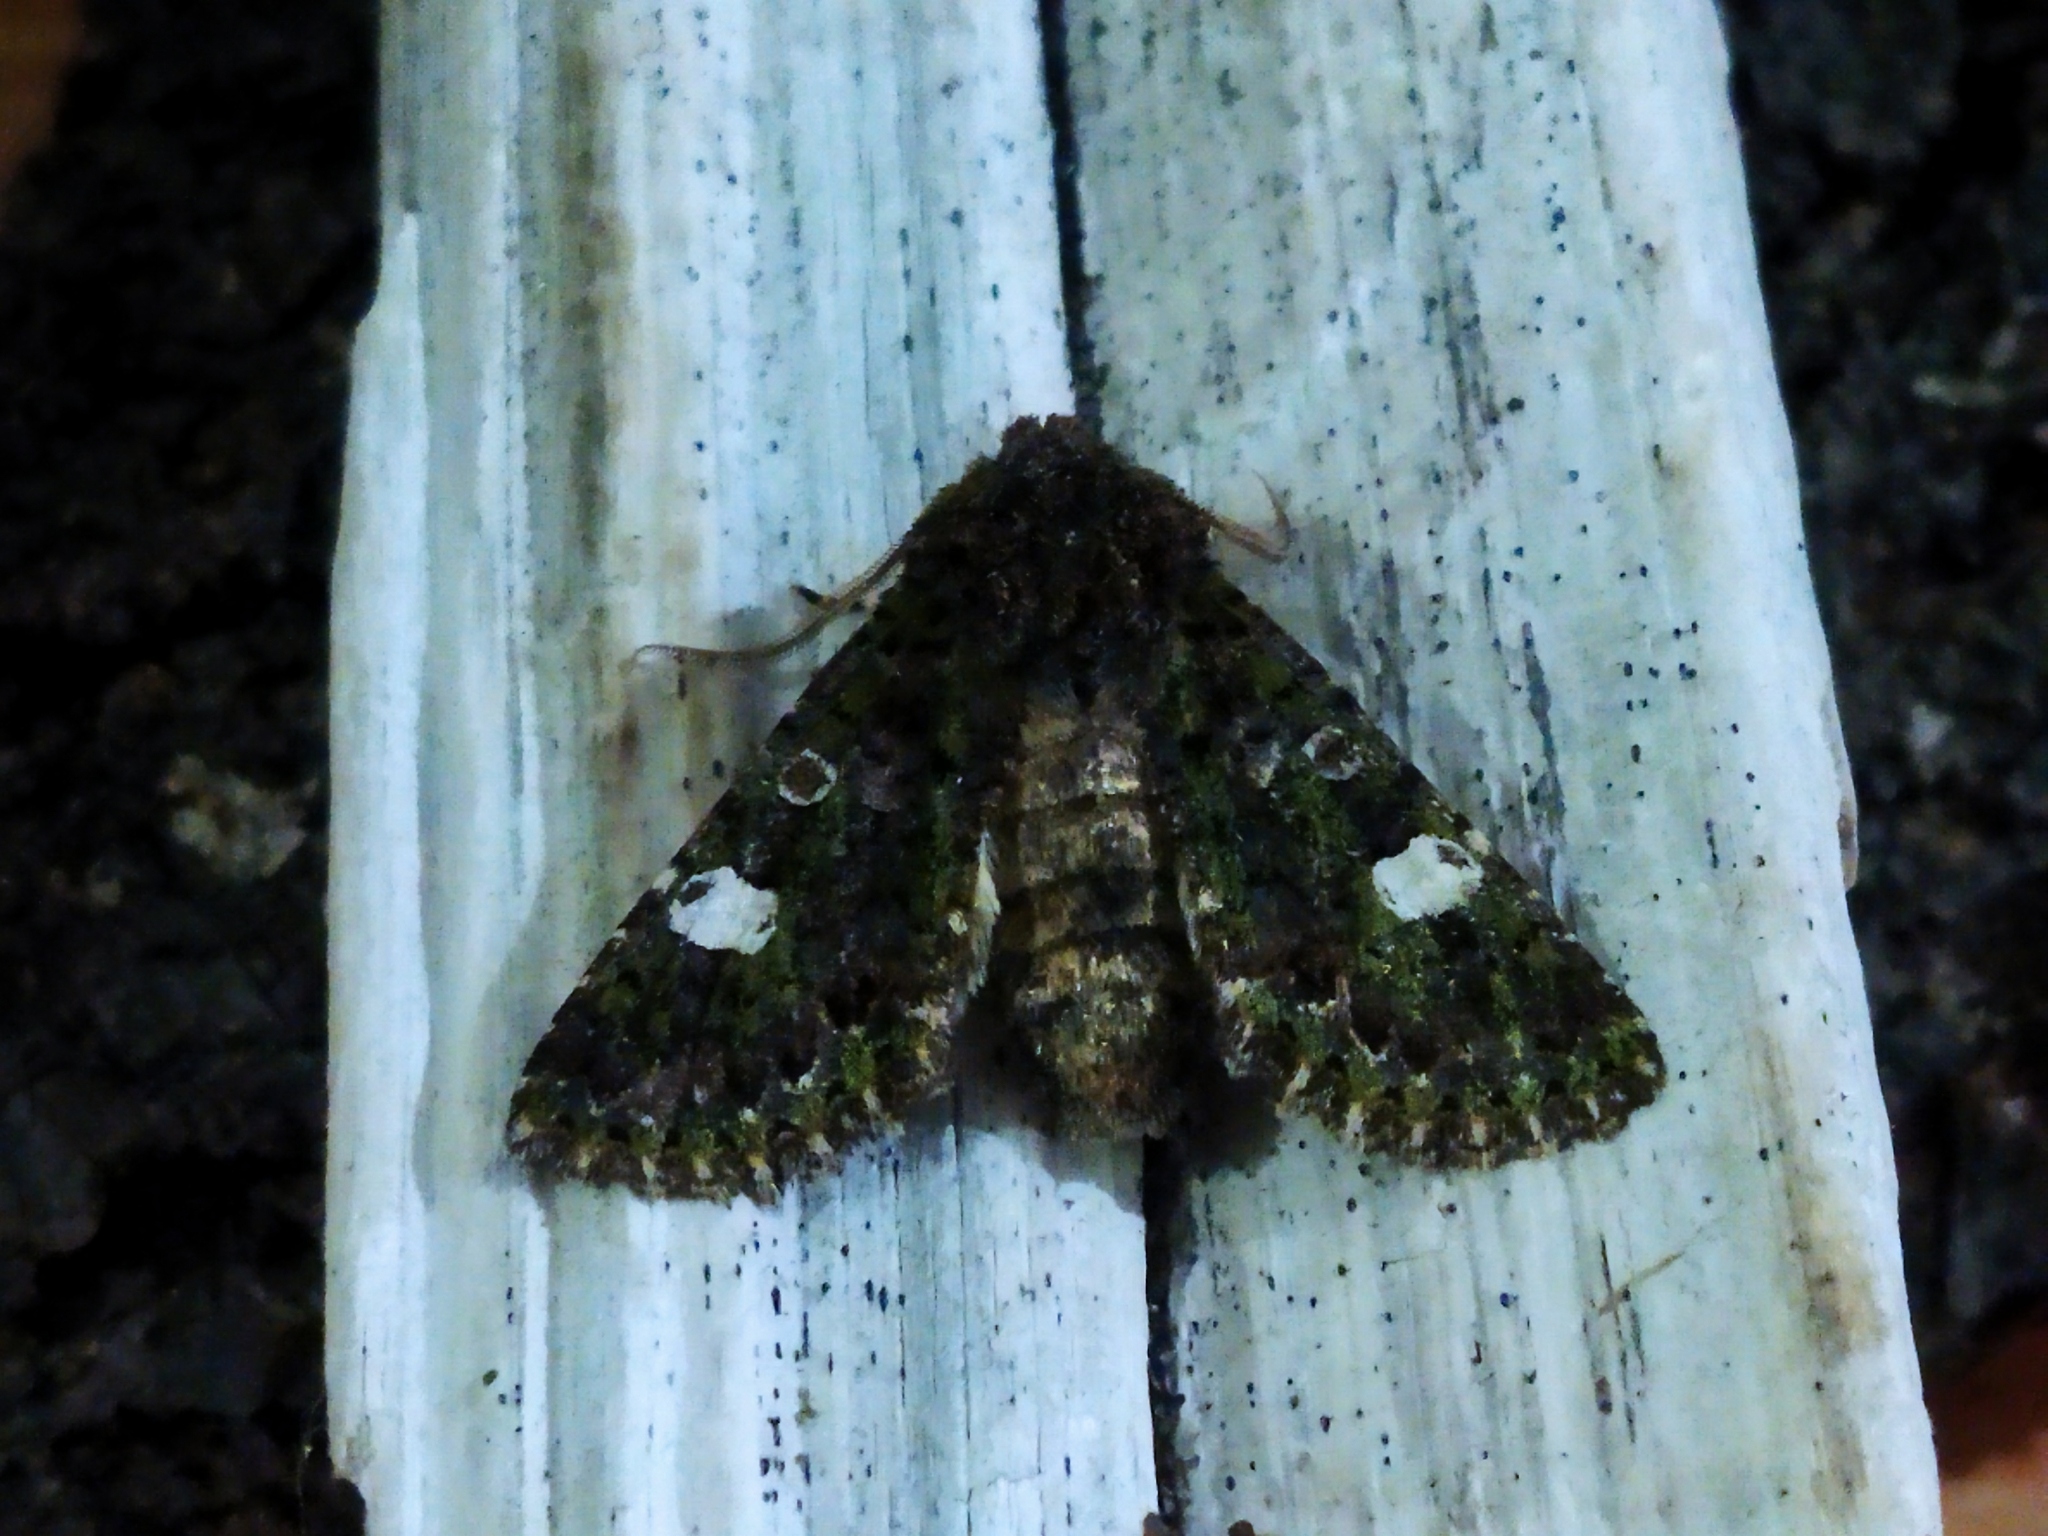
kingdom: Animalia
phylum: Arthropoda
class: Insecta
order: Lepidoptera
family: Noctuidae
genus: Valeria
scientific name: Valeria oleagina
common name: Green-brindled dot
